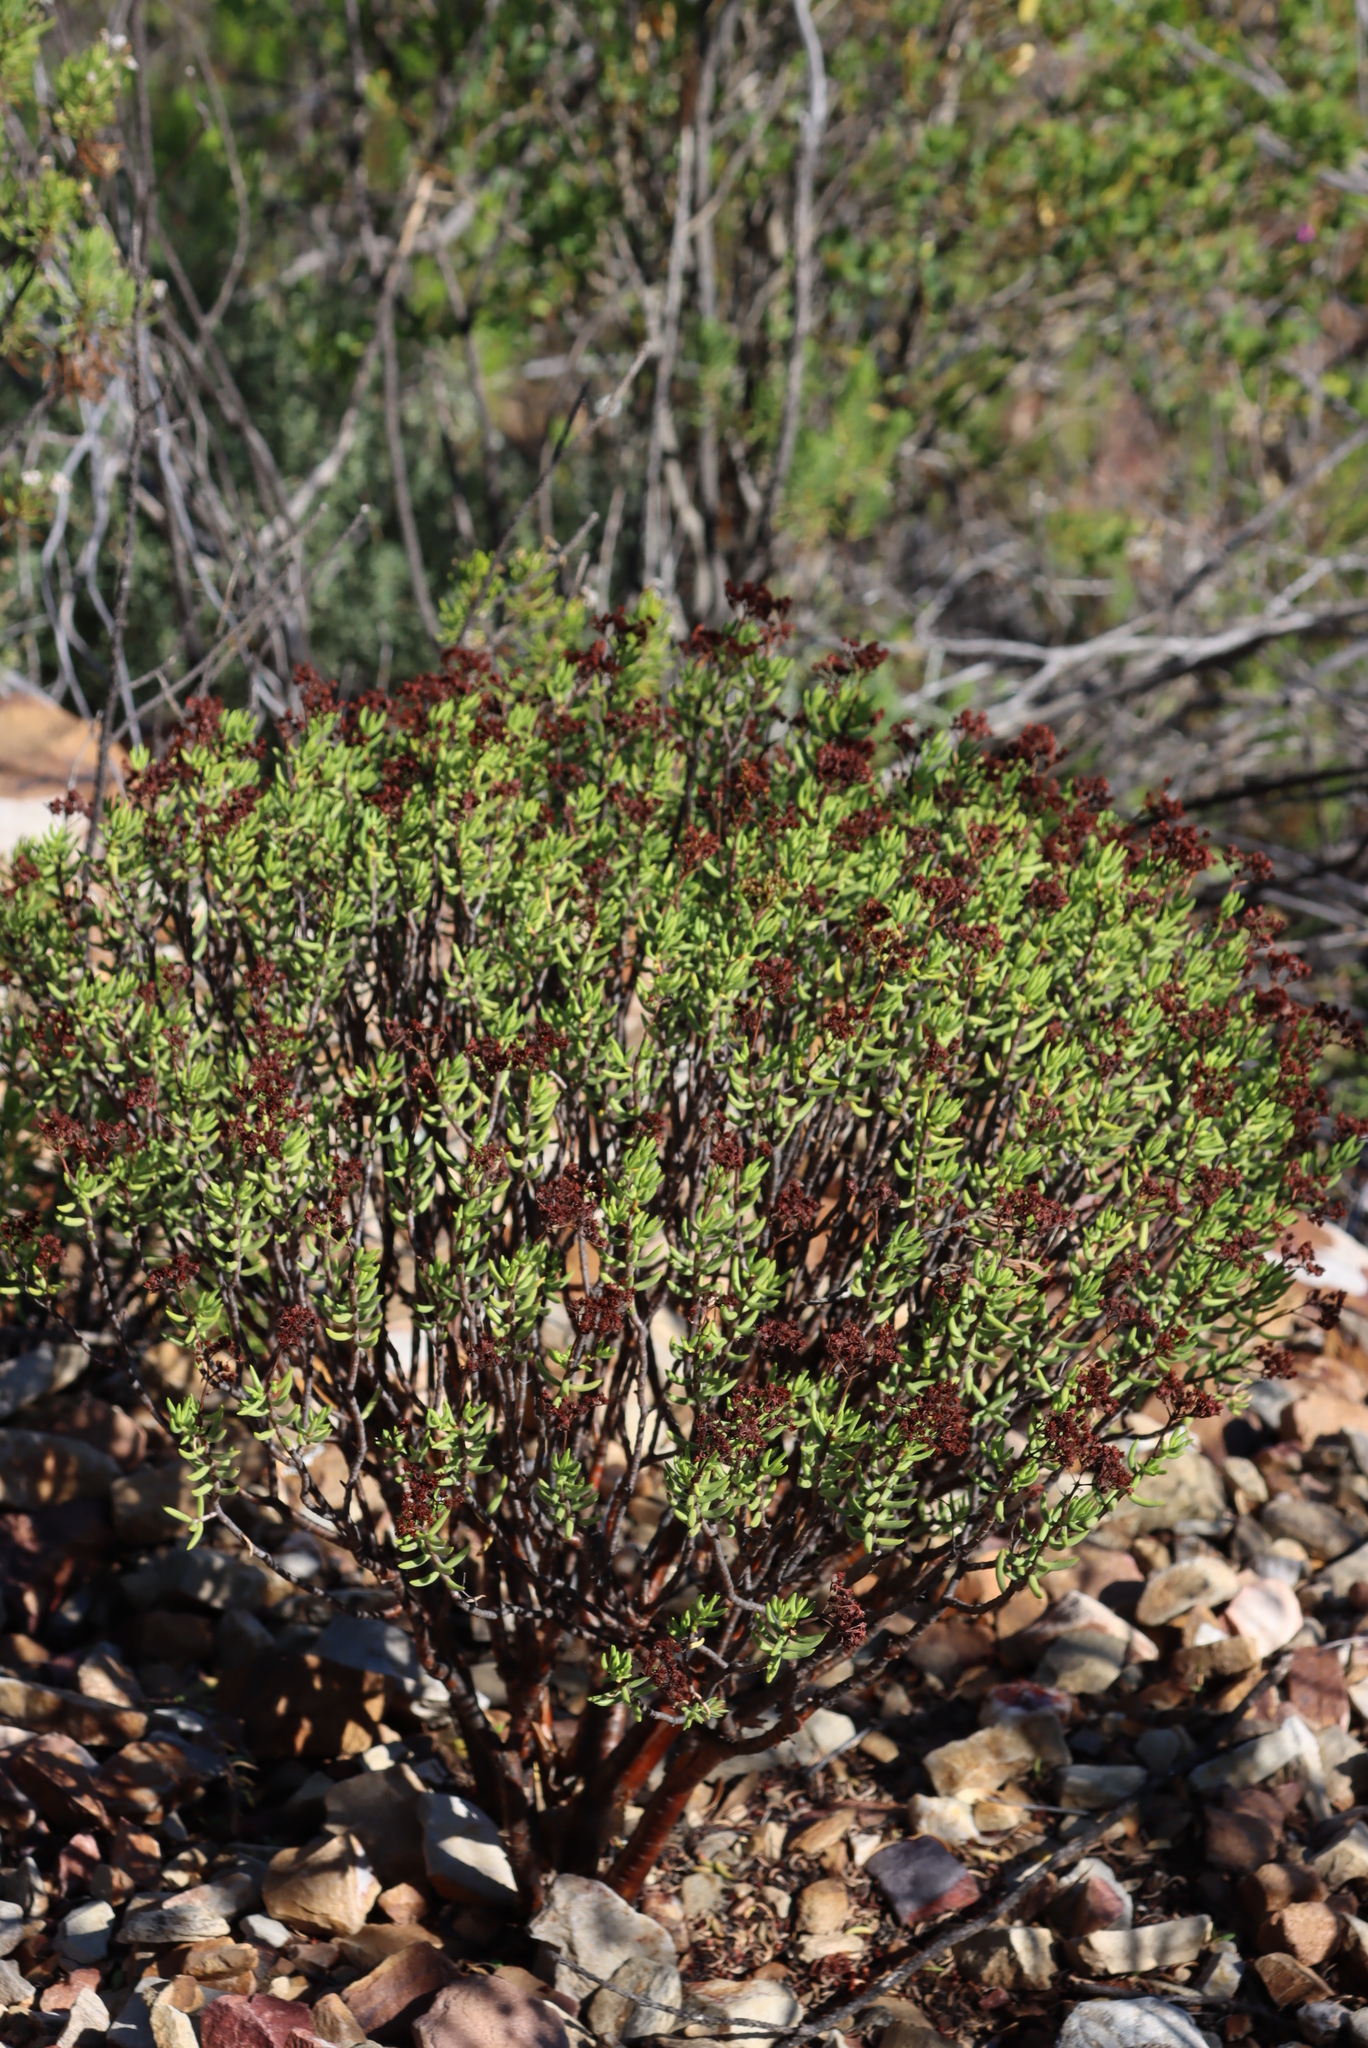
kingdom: Plantae
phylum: Tracheophyta
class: Magnoliopsida
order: Saxifragales
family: Crassulaceae
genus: Crassula
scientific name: Crassula tetragona
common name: Pygmyweed
